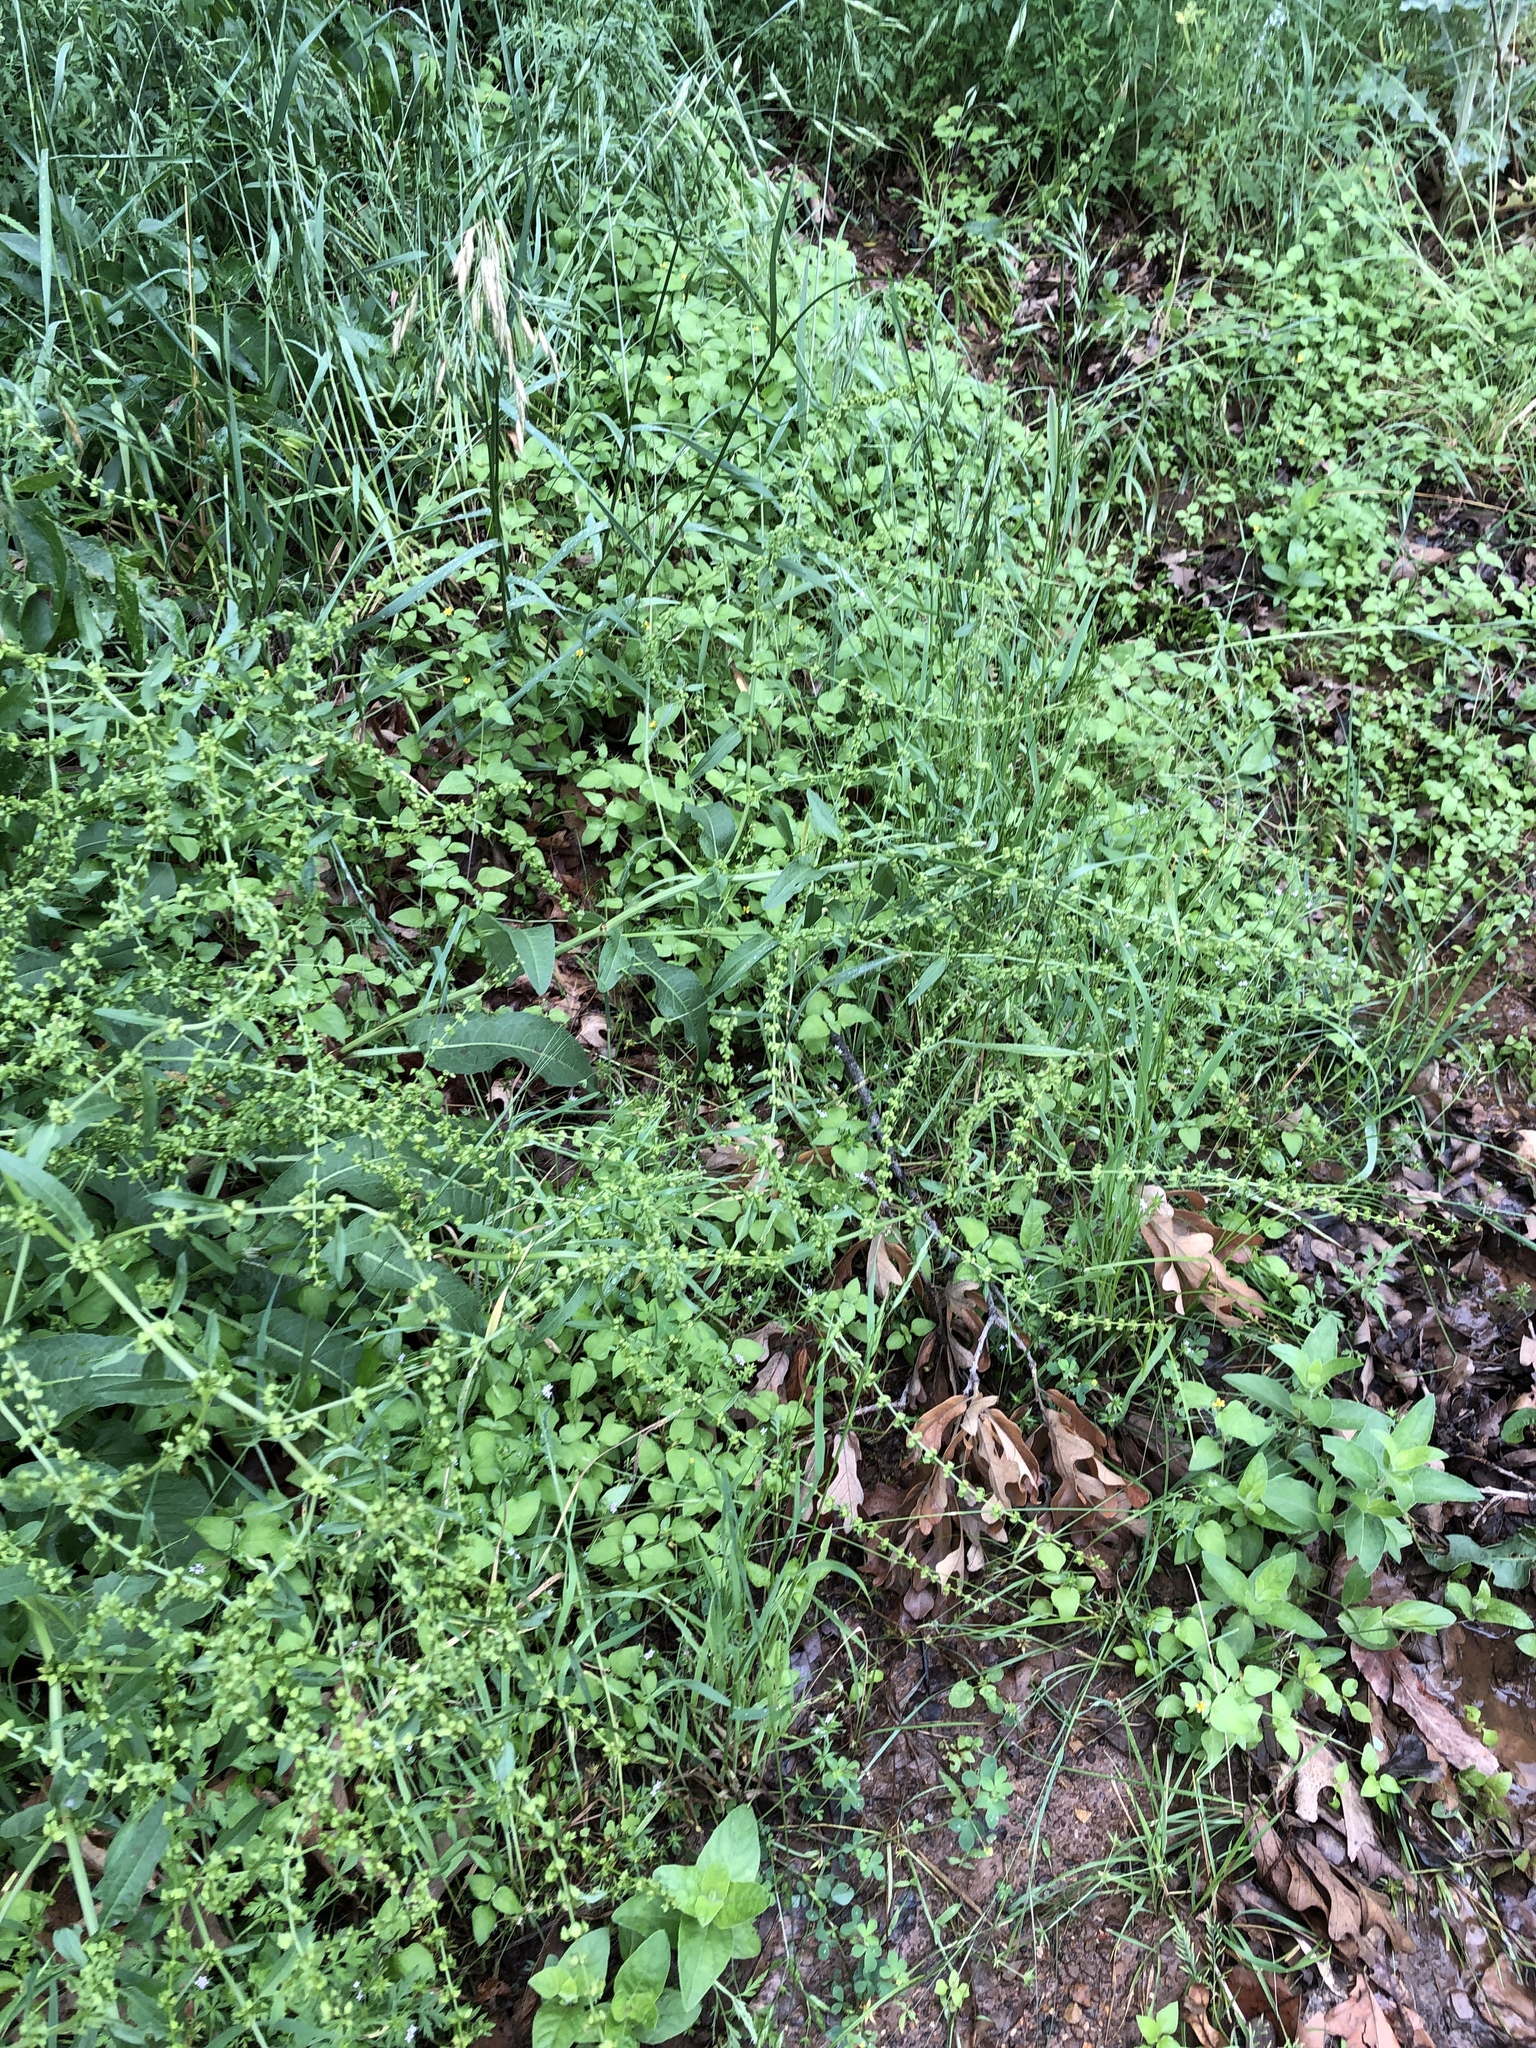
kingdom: Plantae
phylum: Tracheophyta
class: Magnoliopsida
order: Caryophyllales
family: Polygonaceae
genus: Rumex
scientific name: Rumex pulcher
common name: Fiddle dock
